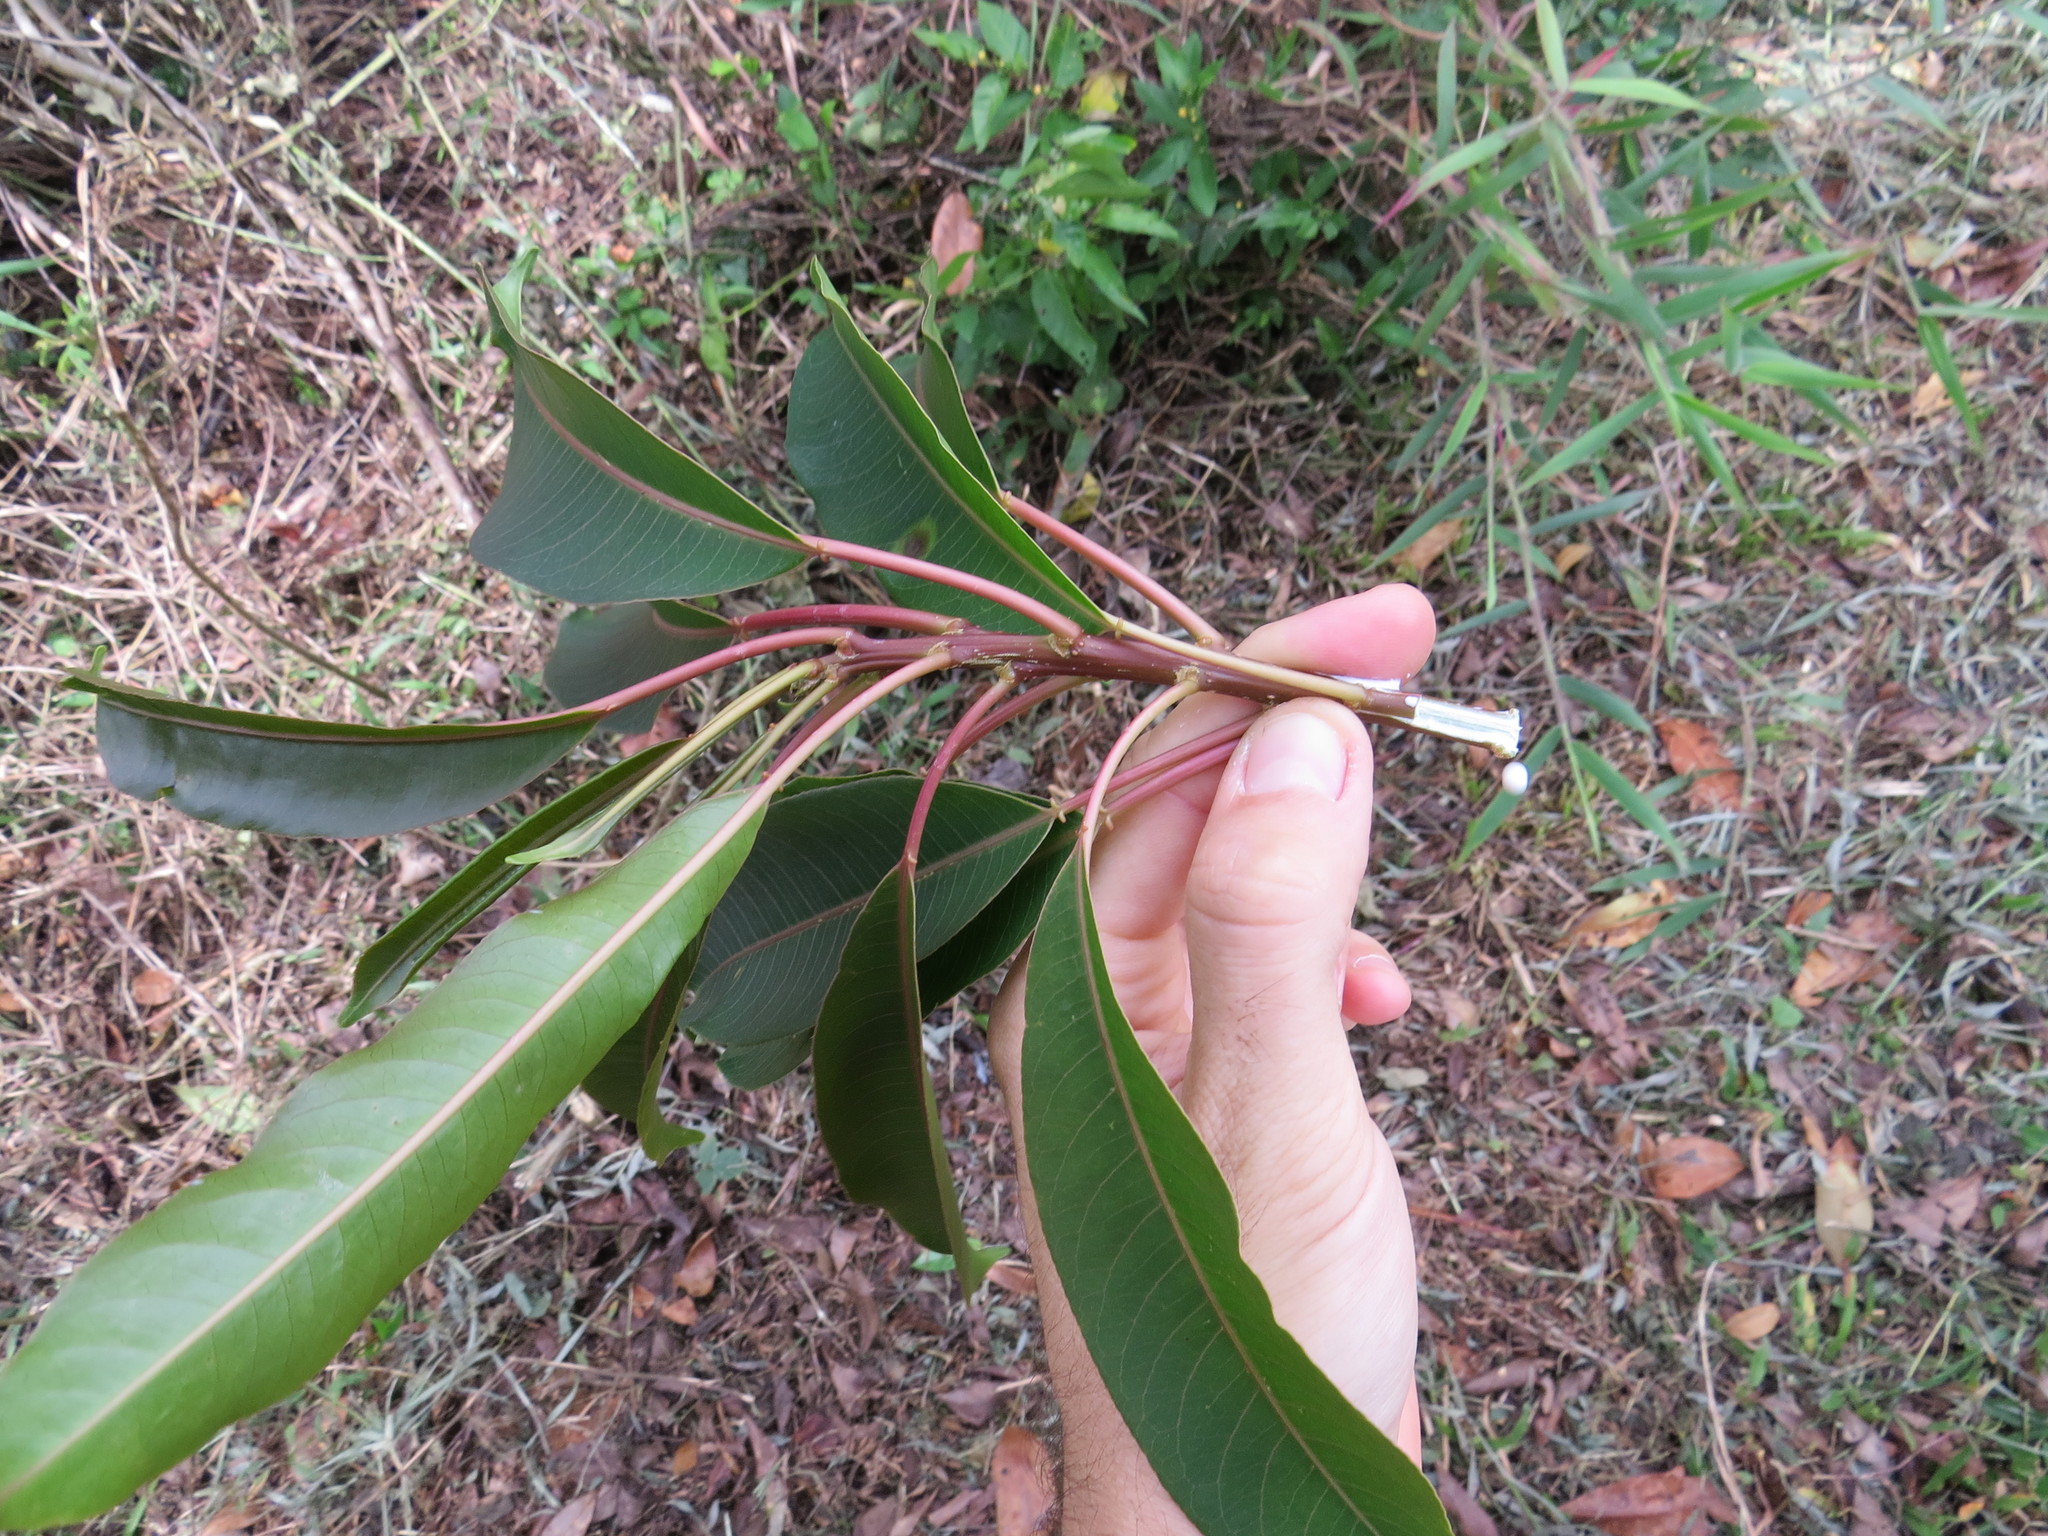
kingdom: Plantae
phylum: Tracheophyta
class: Magnoliopsida
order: Malpighiales
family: Euphorbiaceae
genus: Sapium
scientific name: Sapium glandulosum
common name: Milktree
